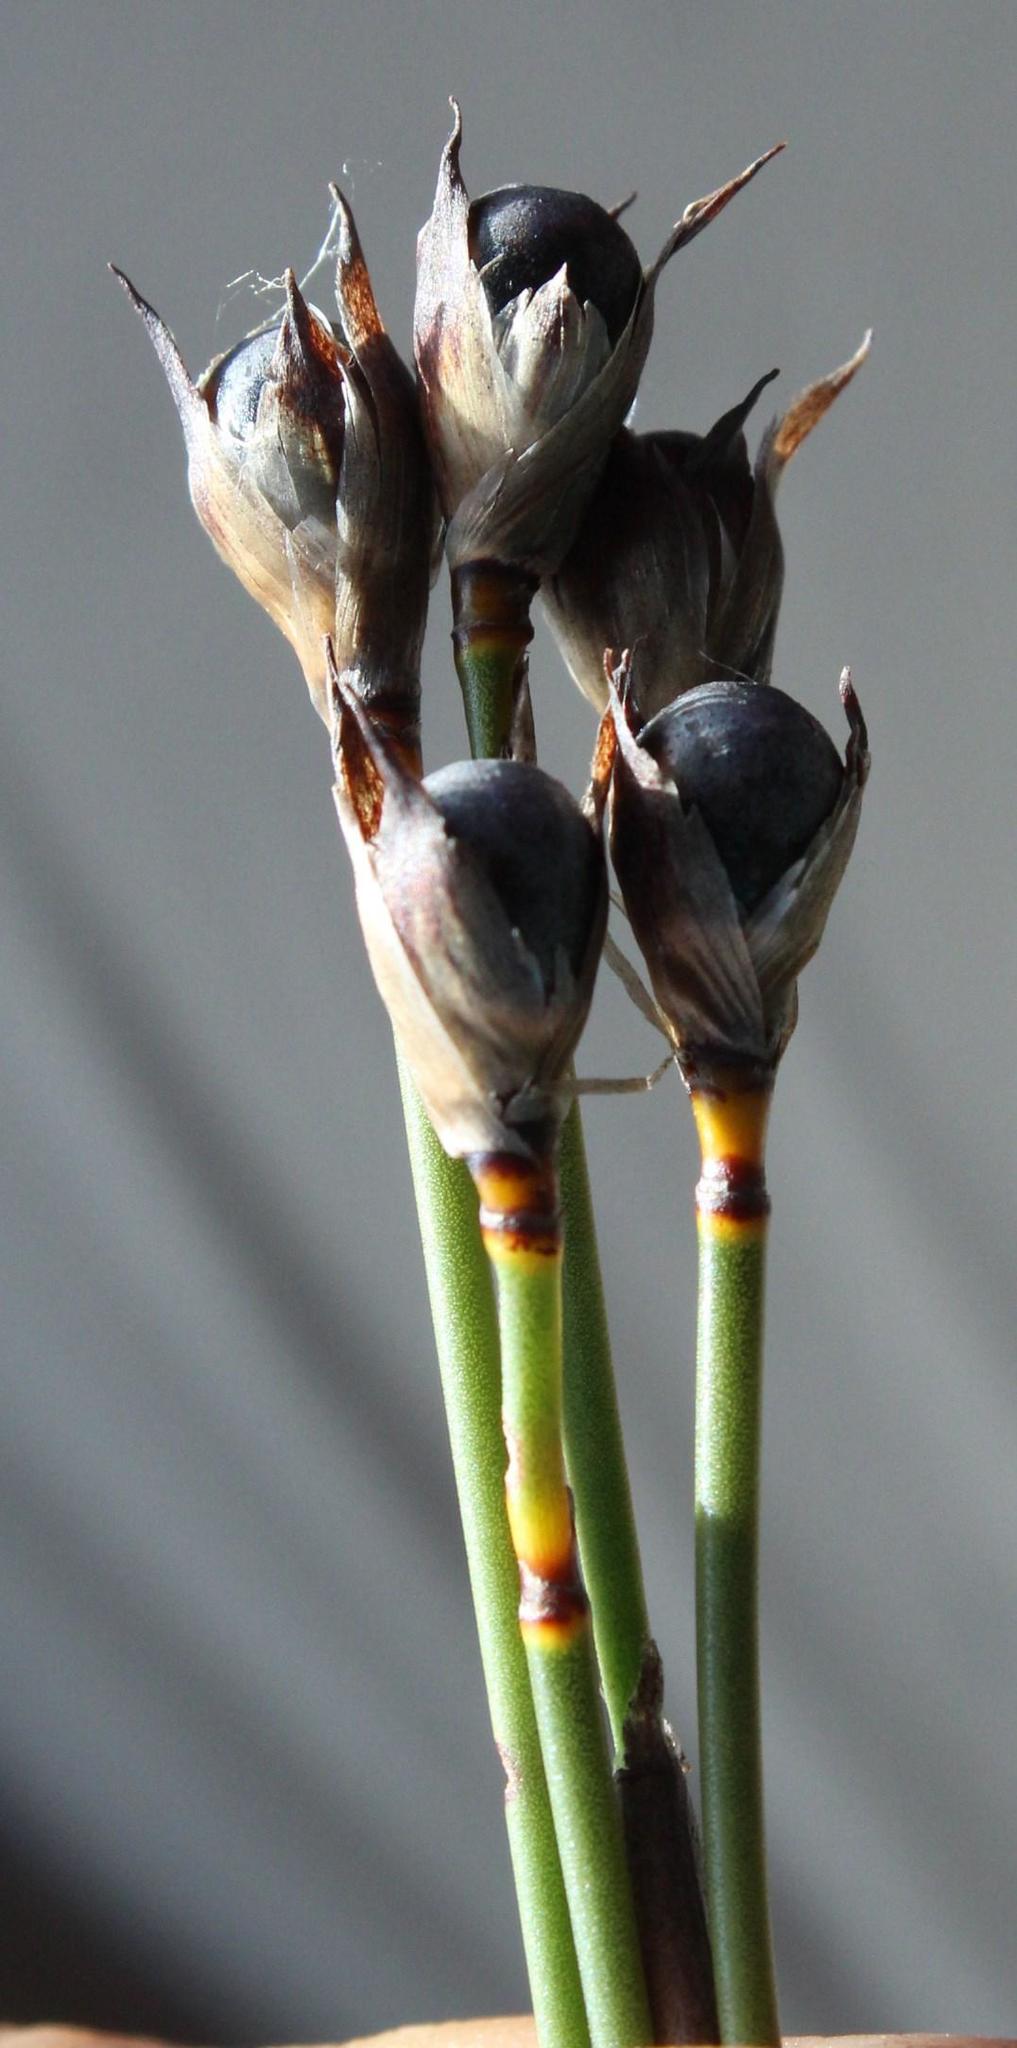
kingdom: Plantae
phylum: Tracheophyta
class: Liliopsida
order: Poales
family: Restionaceae
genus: Willdenowia
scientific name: Willdenowia teres
